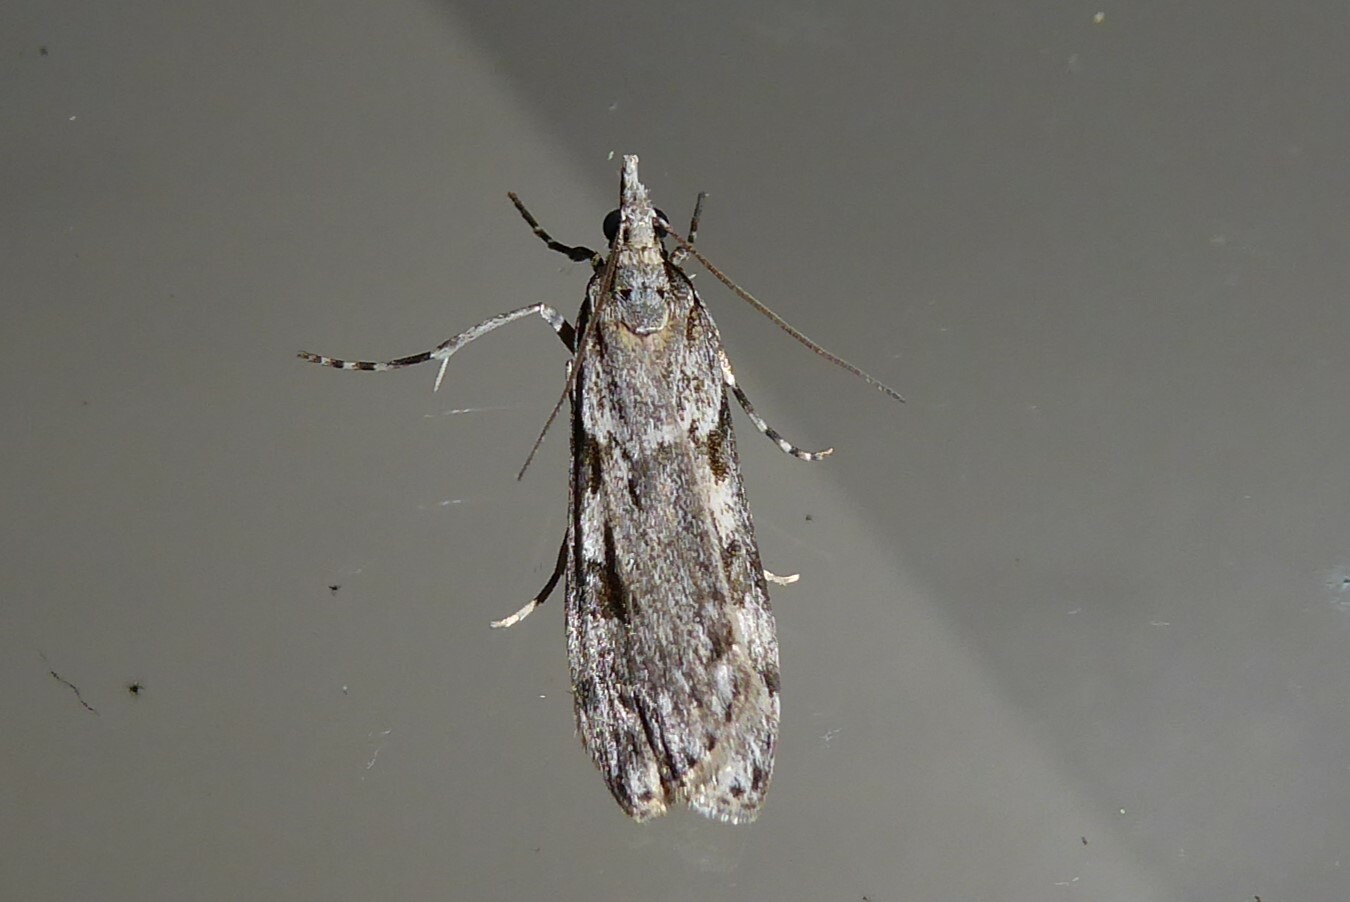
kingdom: Animalia
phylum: Arthropoda
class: Insecta
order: Lepidoptera
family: Crambidae
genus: Scoparia
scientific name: Scoparia halopis
